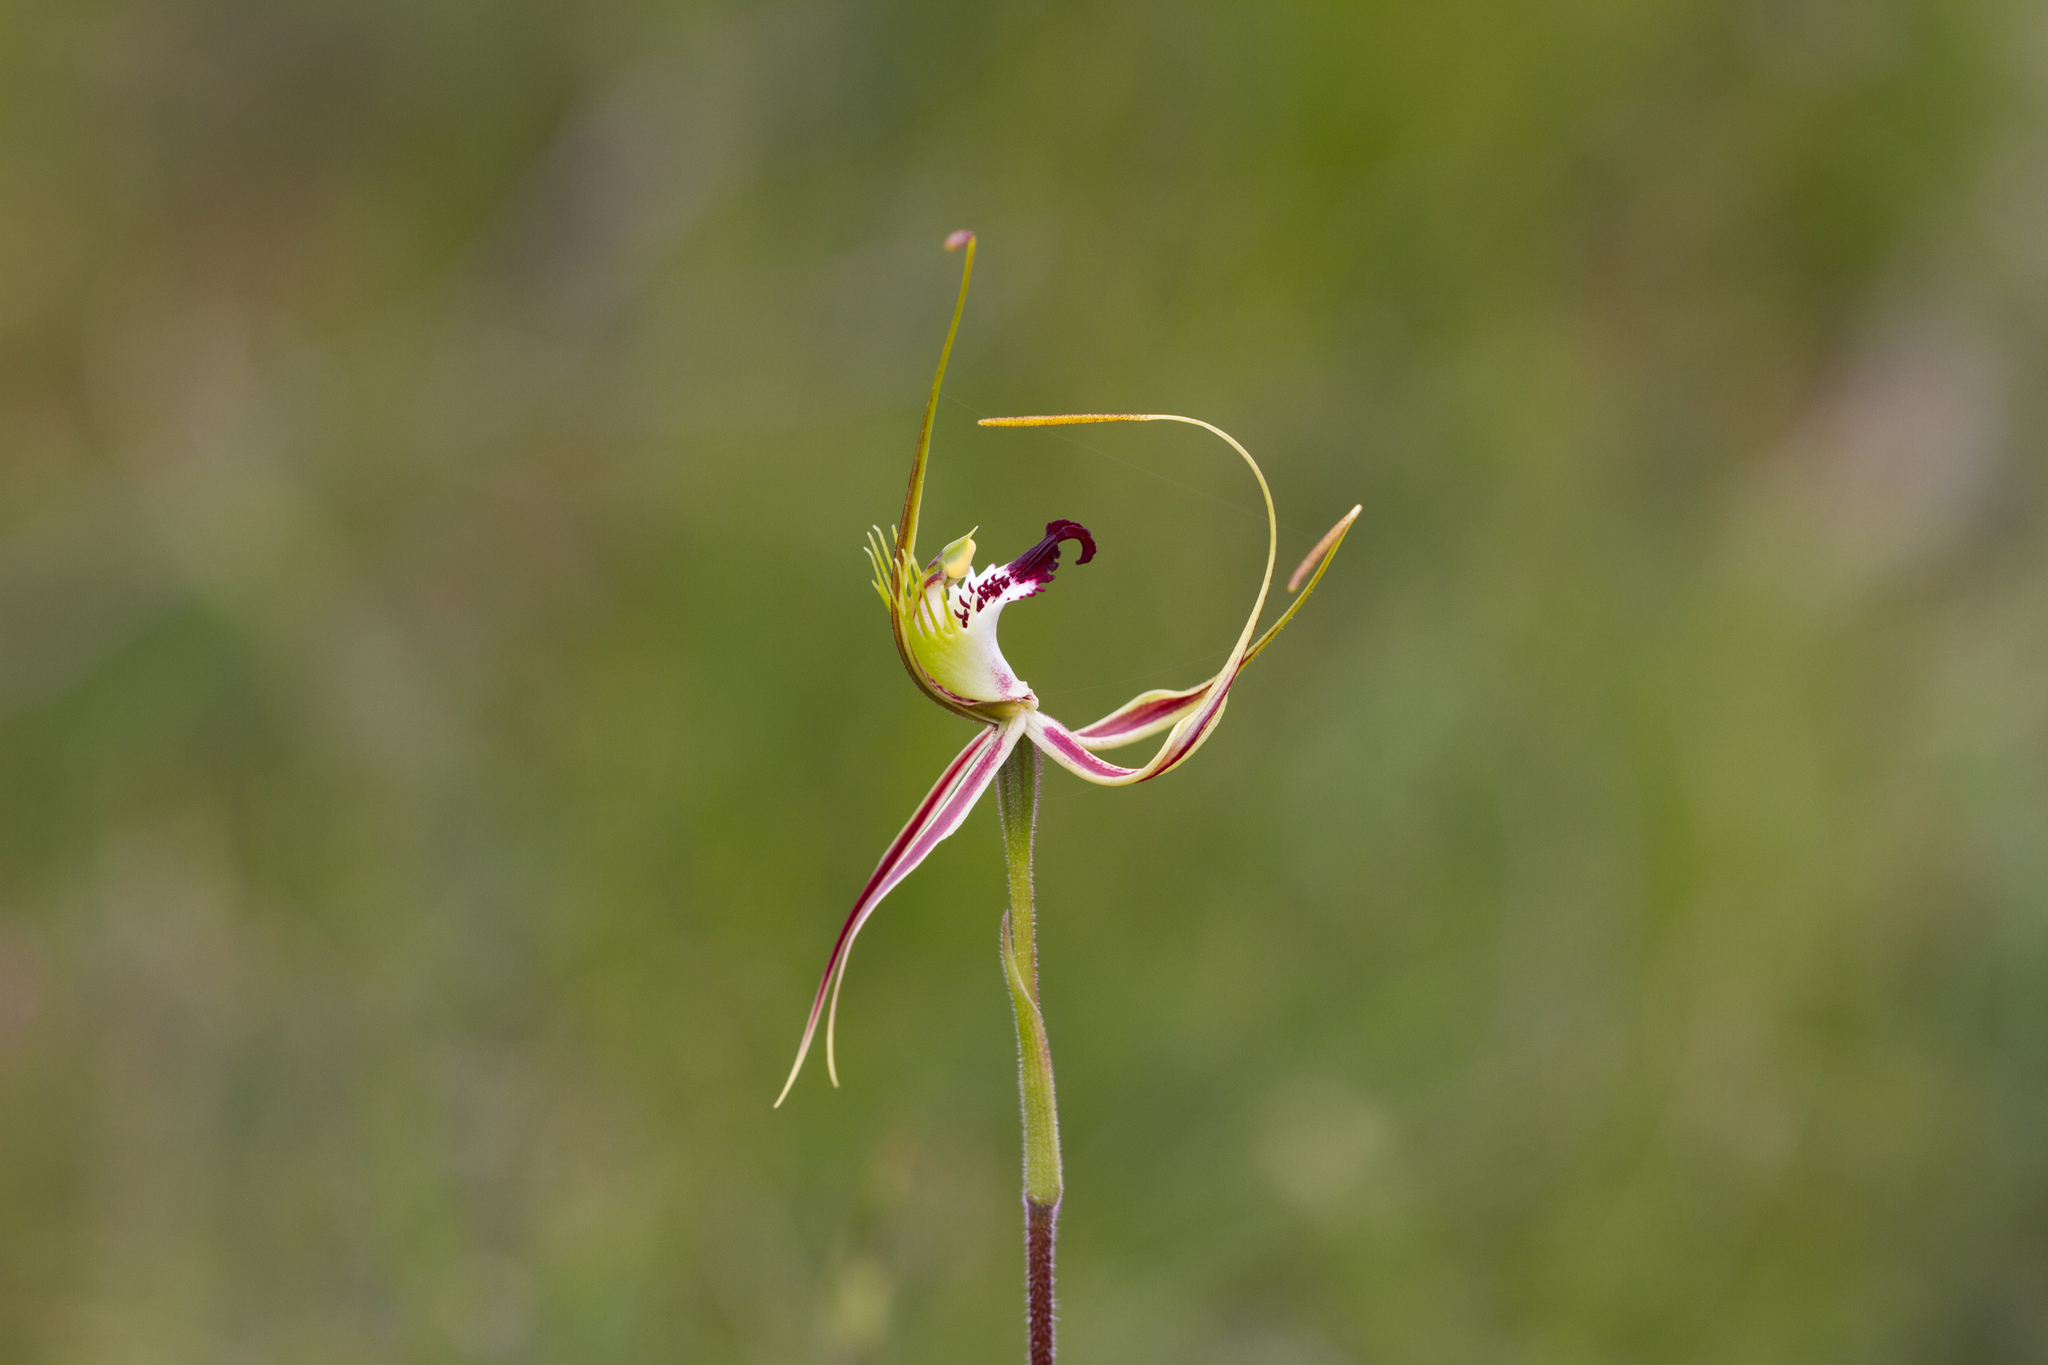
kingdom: Plantae
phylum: Tracheophyta
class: Liliopsida
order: Asparagales
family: Orchidaceae
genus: Caladenia
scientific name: Caladenia tentaculata
